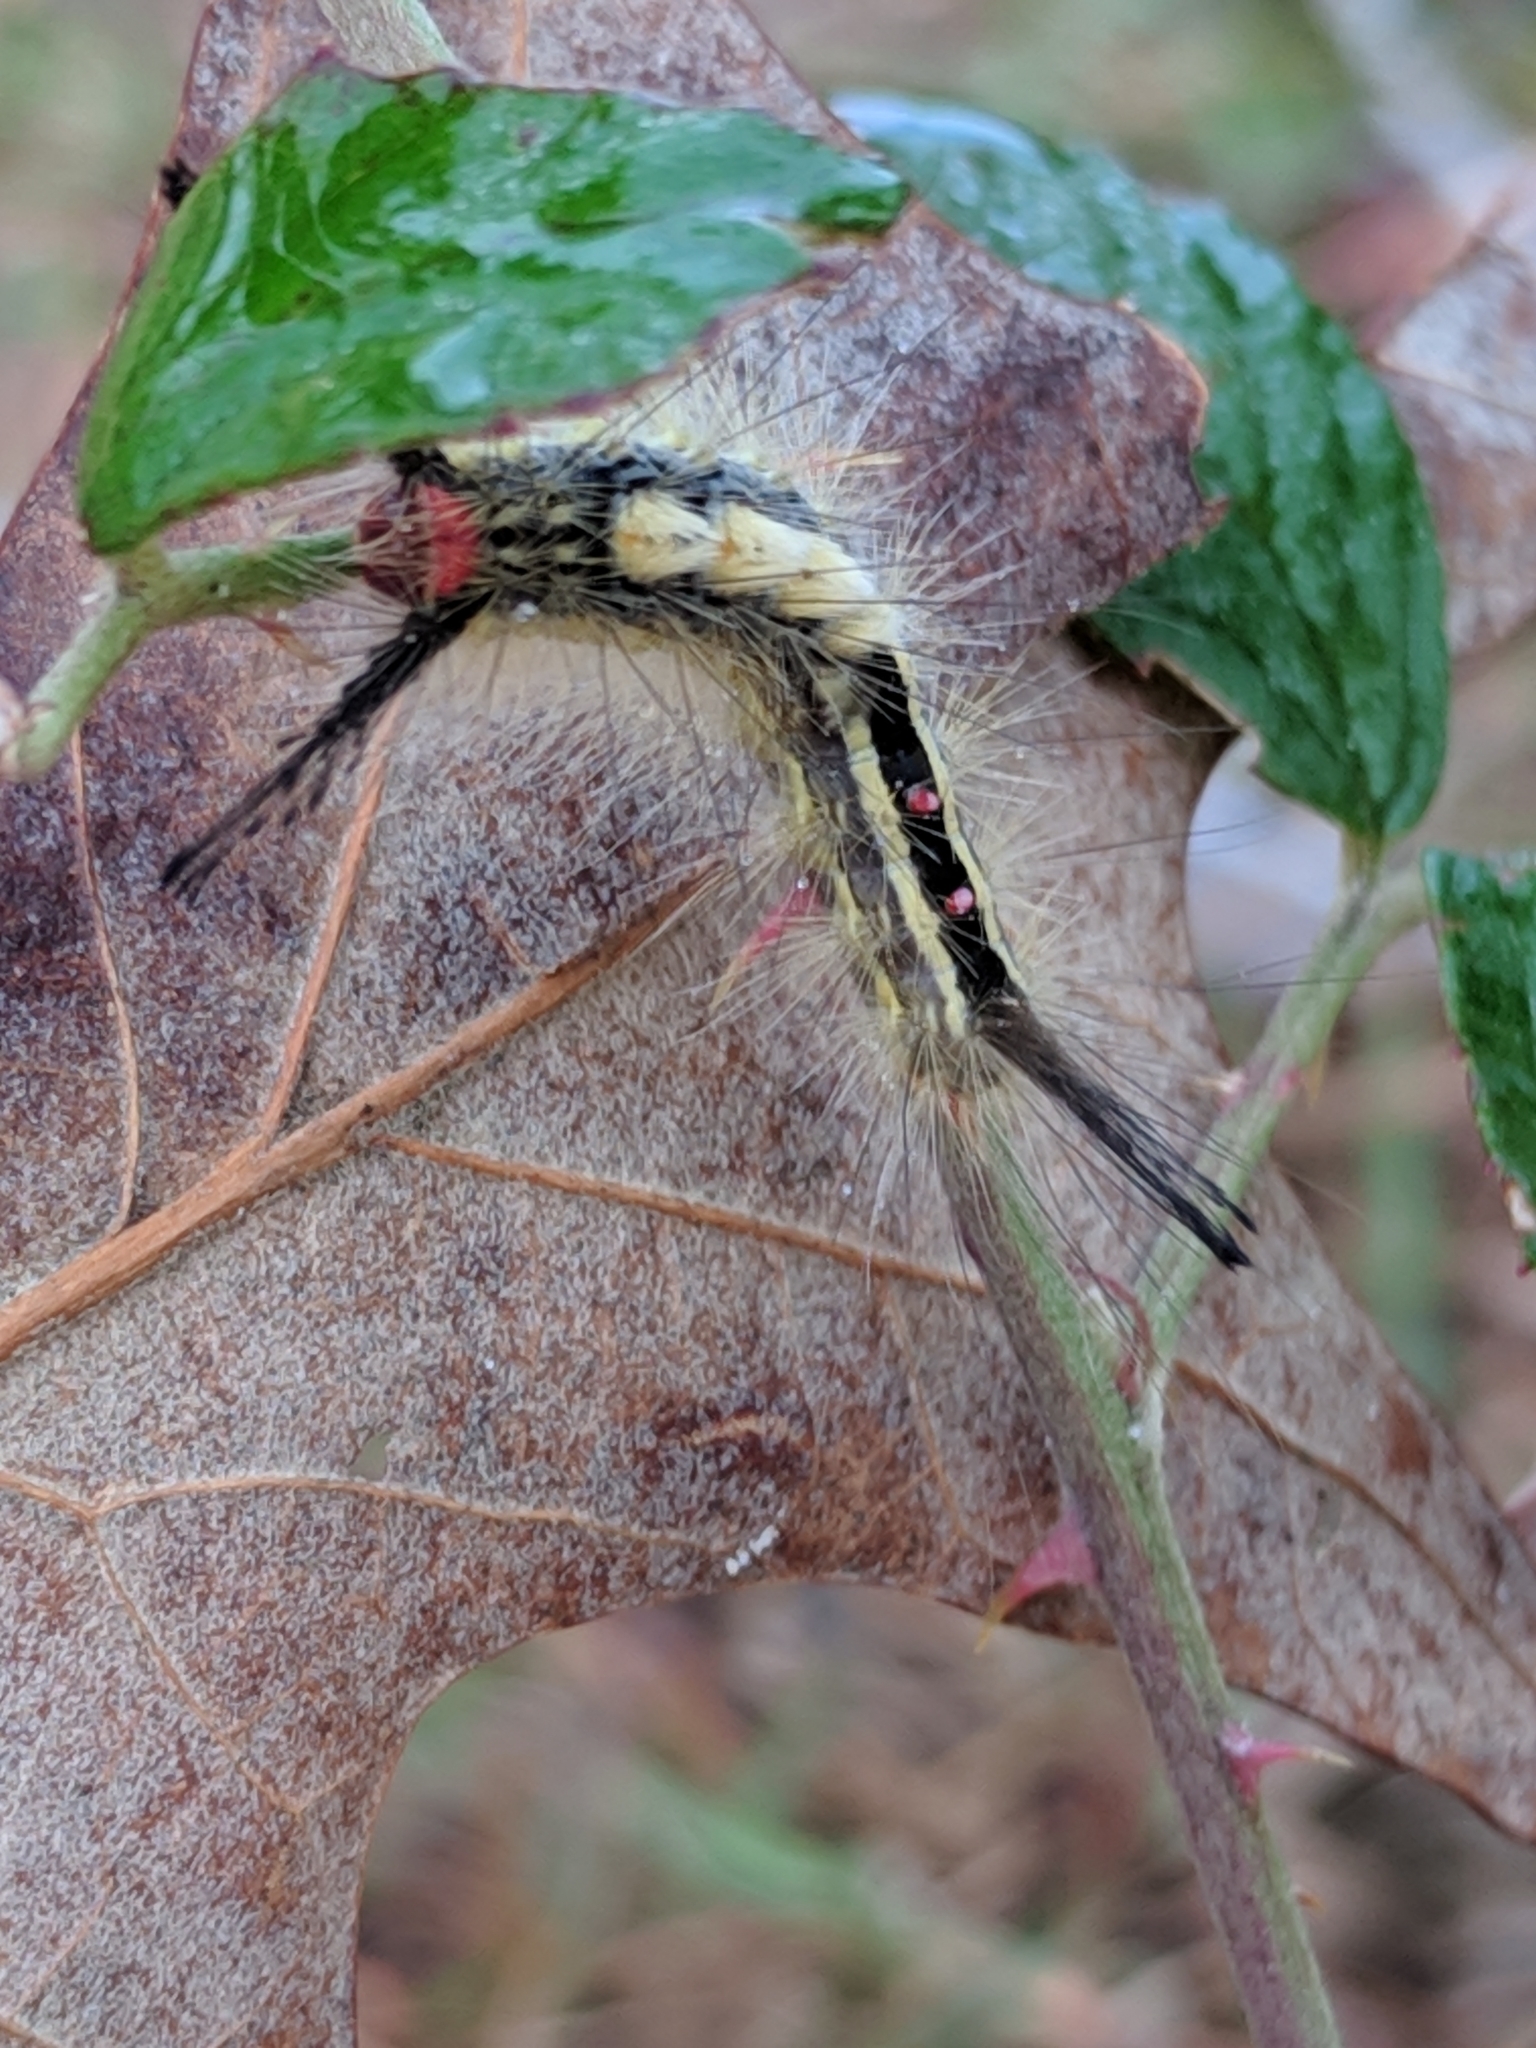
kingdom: Animalia
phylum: Arthropoda
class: Insecta
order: Lepidoptera
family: Erebidae
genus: Orgyia
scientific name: Orgyia leucostigma
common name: White-marked tussock moth
